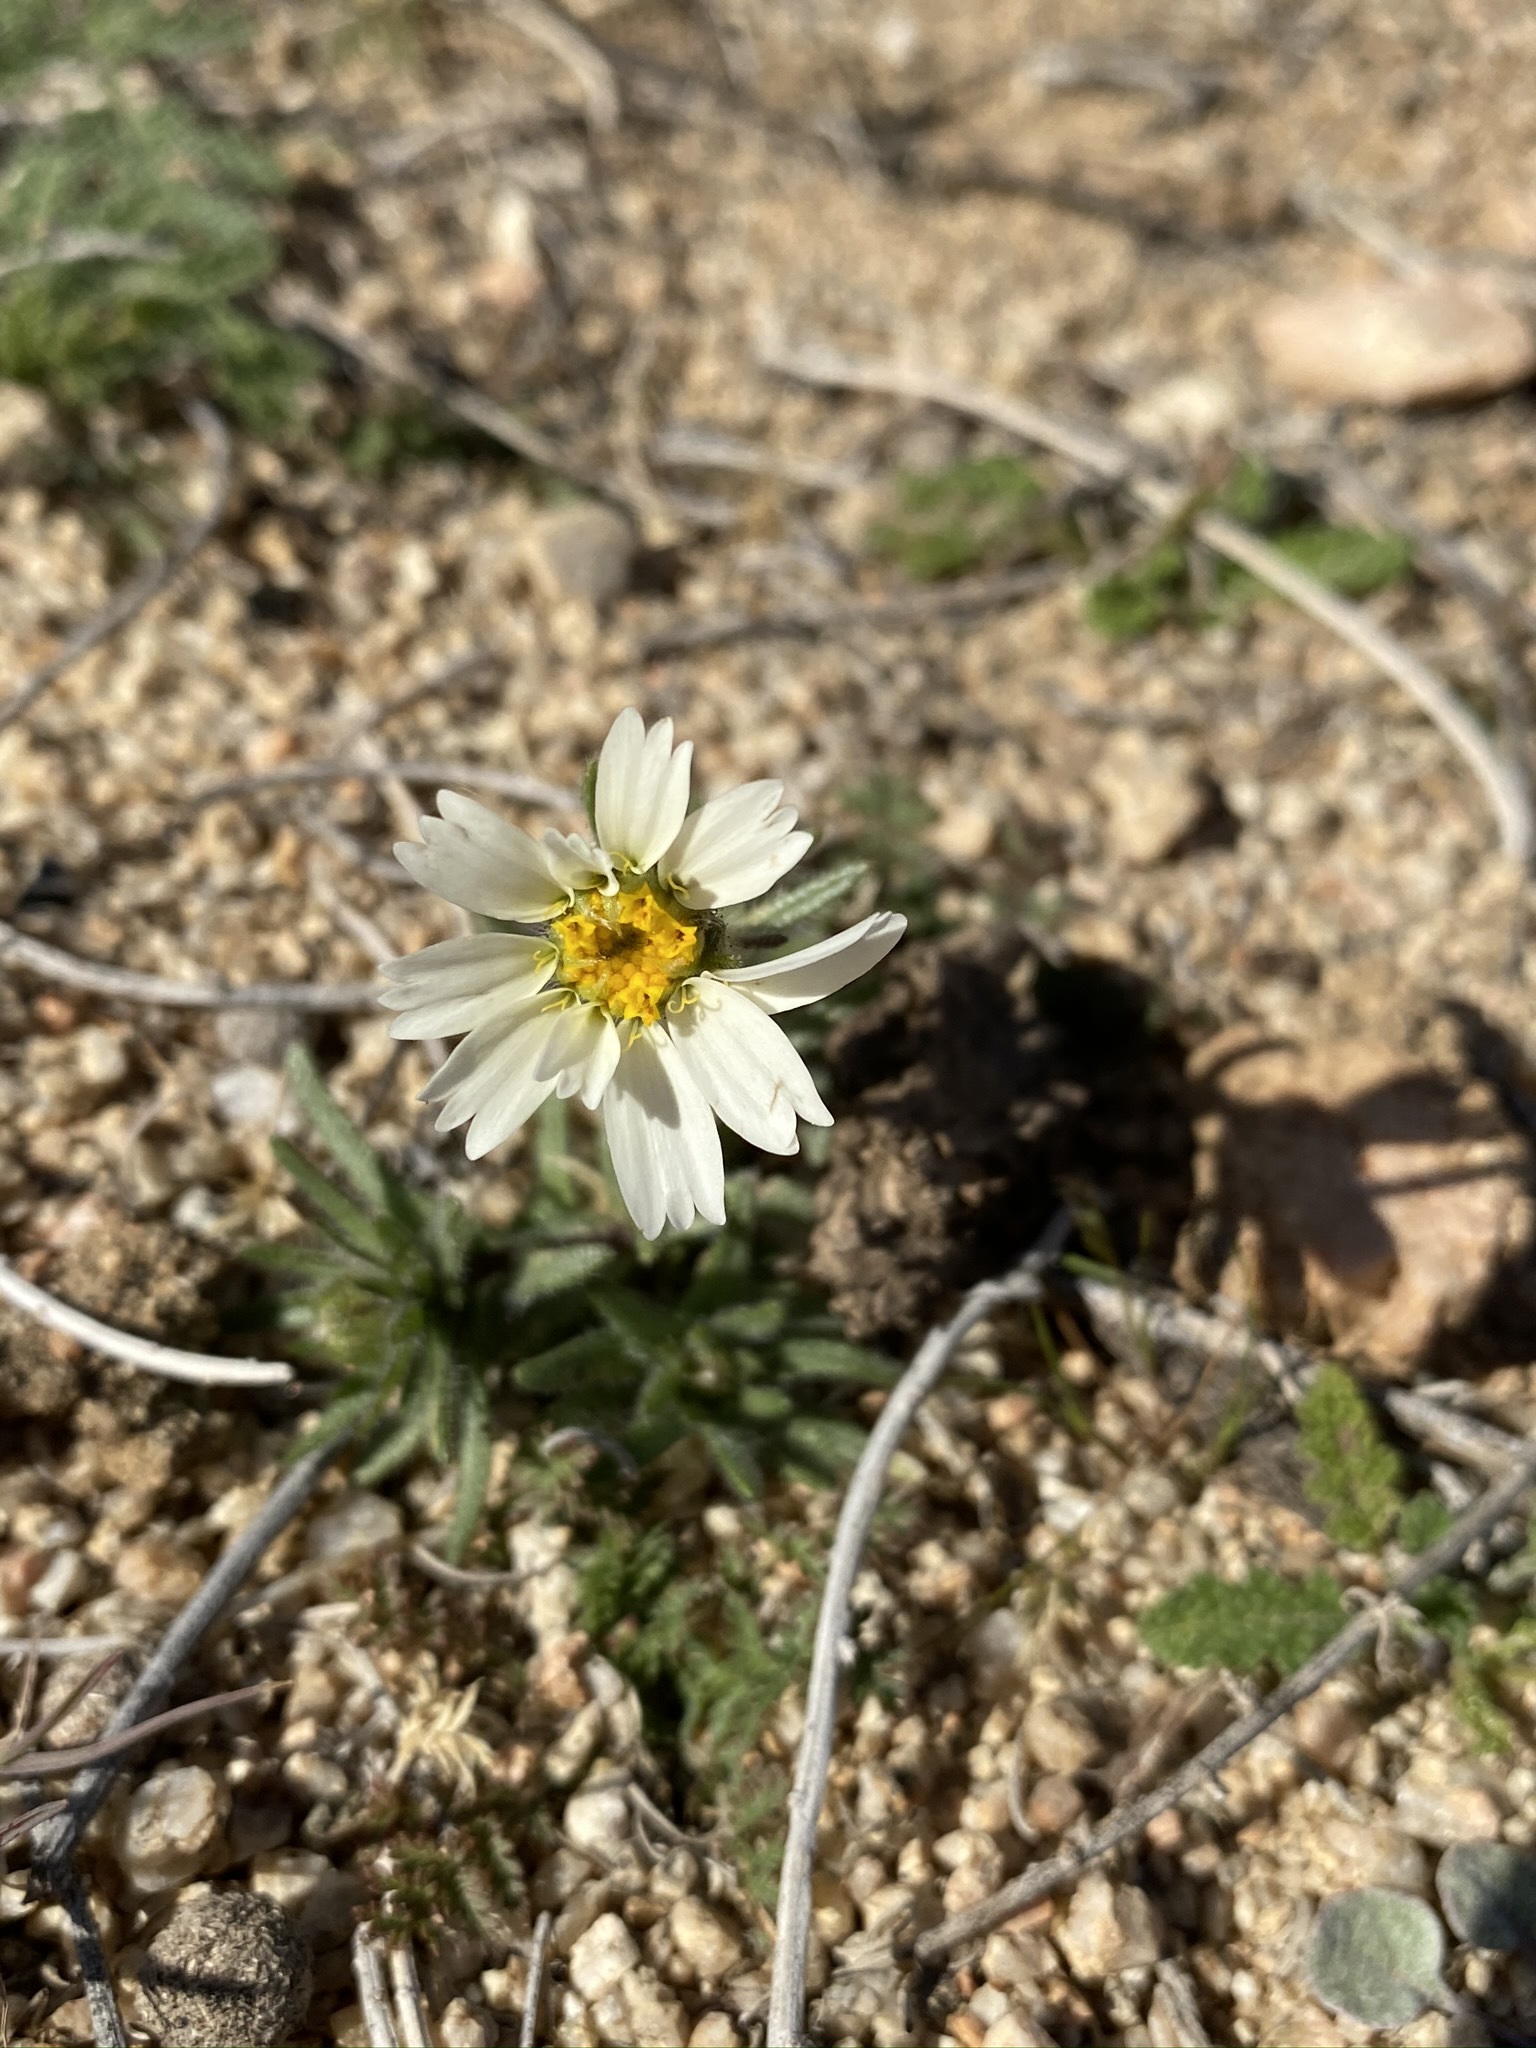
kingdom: Plantae
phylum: Tracheophyta
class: Magnoliopsida
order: Asterales
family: Asteraceae
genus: Layia
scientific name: Layia glandulosa
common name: White layia
